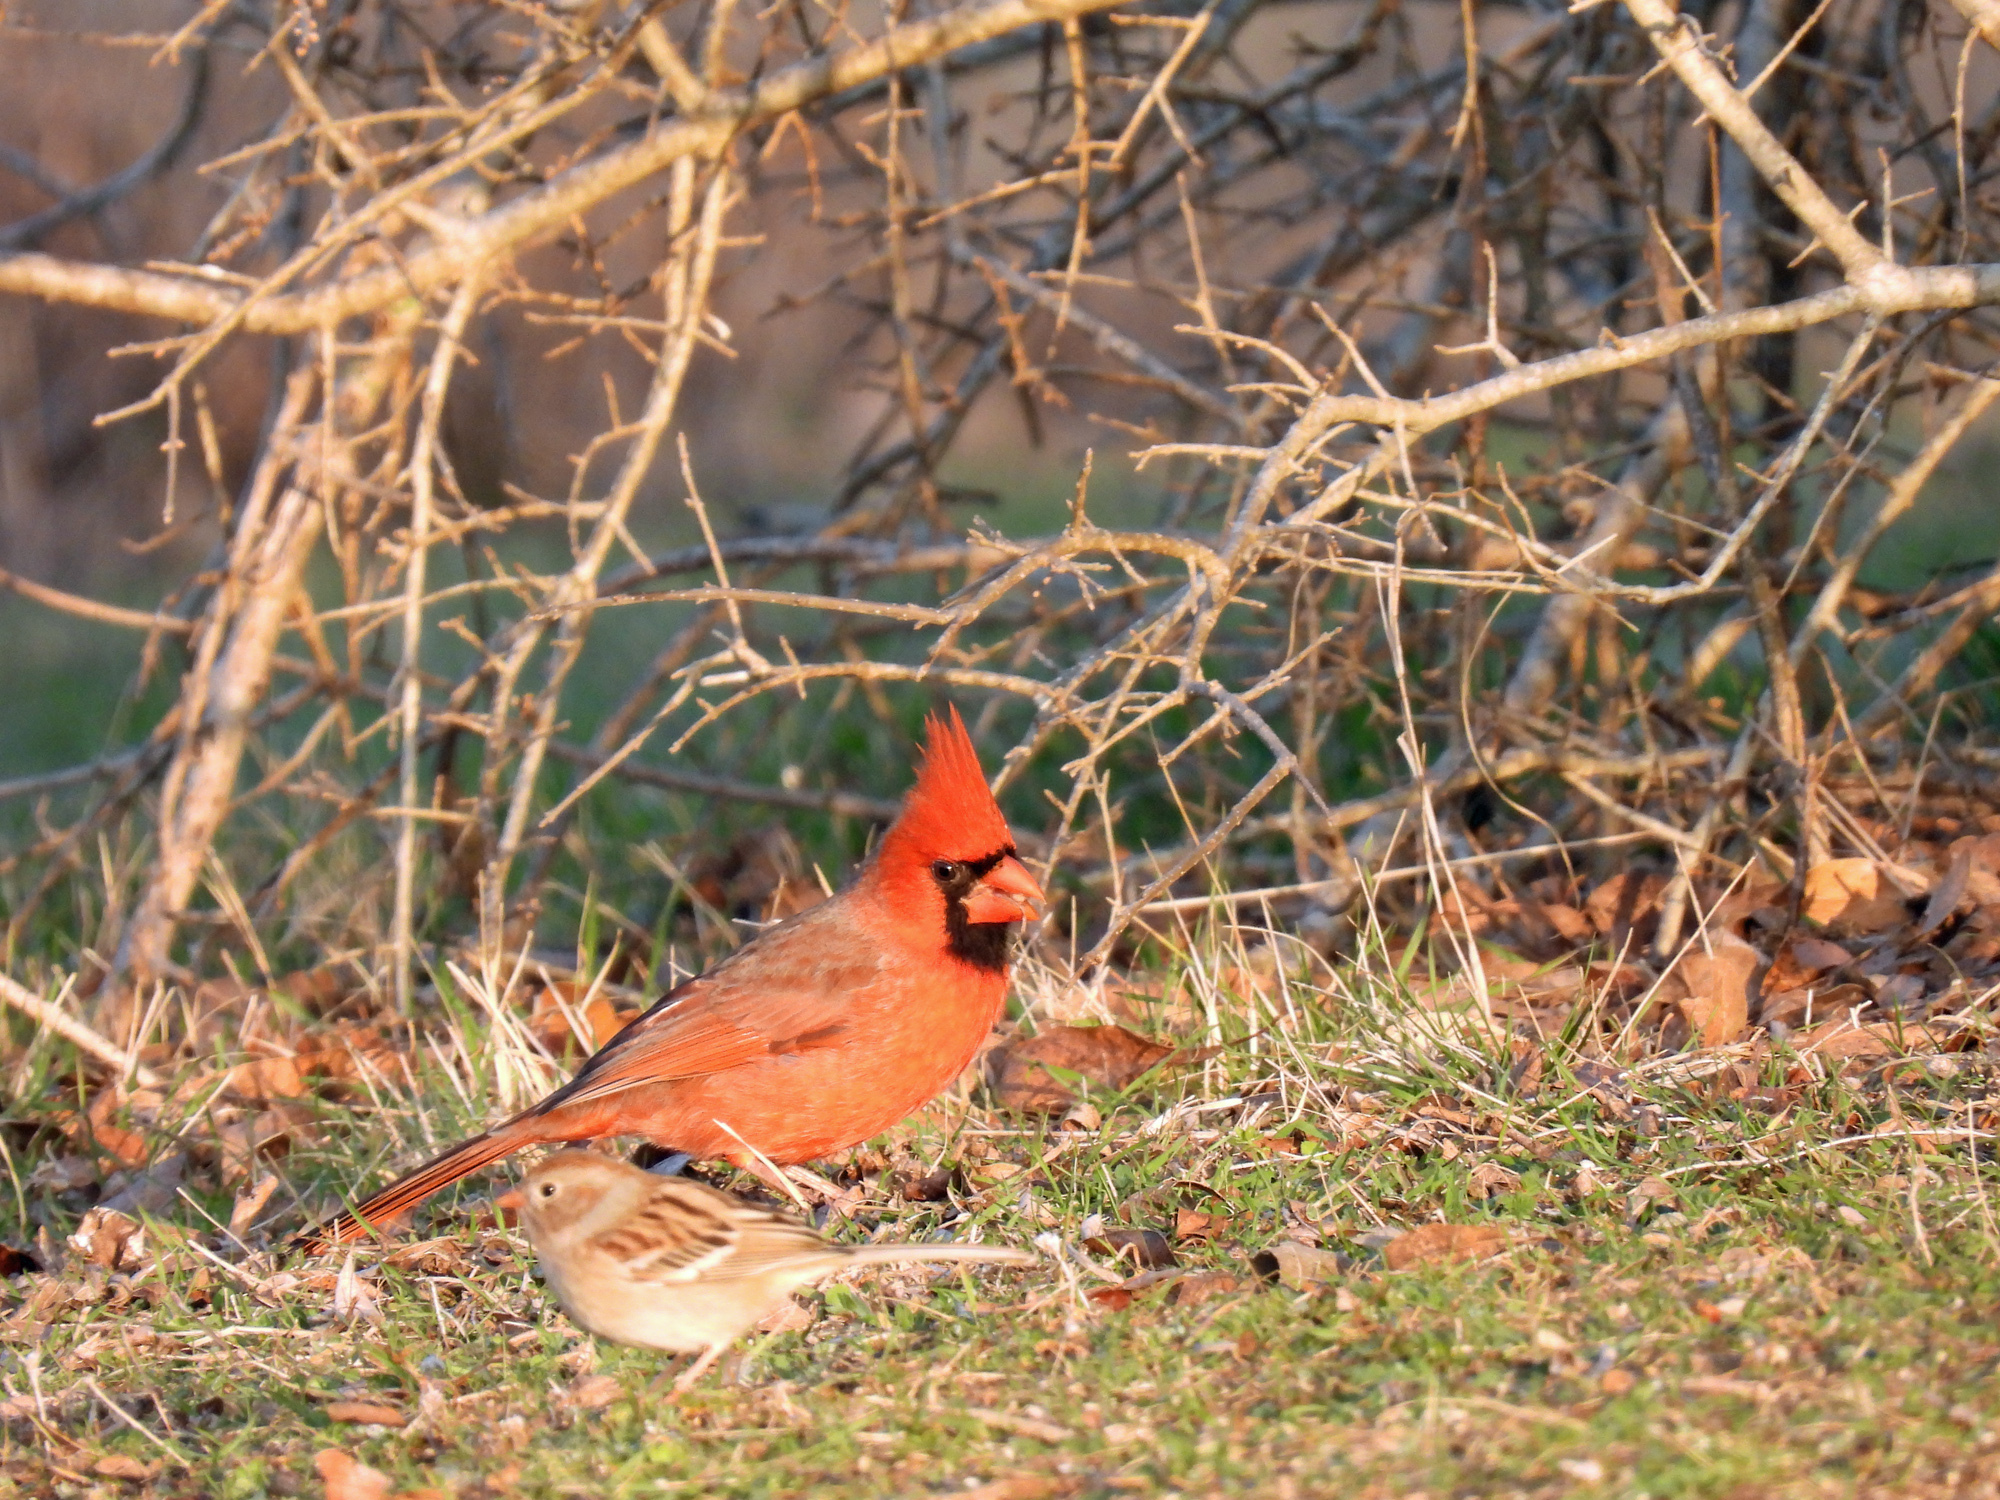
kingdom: Animalia
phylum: Chordata
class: Aves
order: Passeriformes
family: Cardinalidae
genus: Cardinalis
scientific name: Cardinalis cardinalis
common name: Northern cardinal
